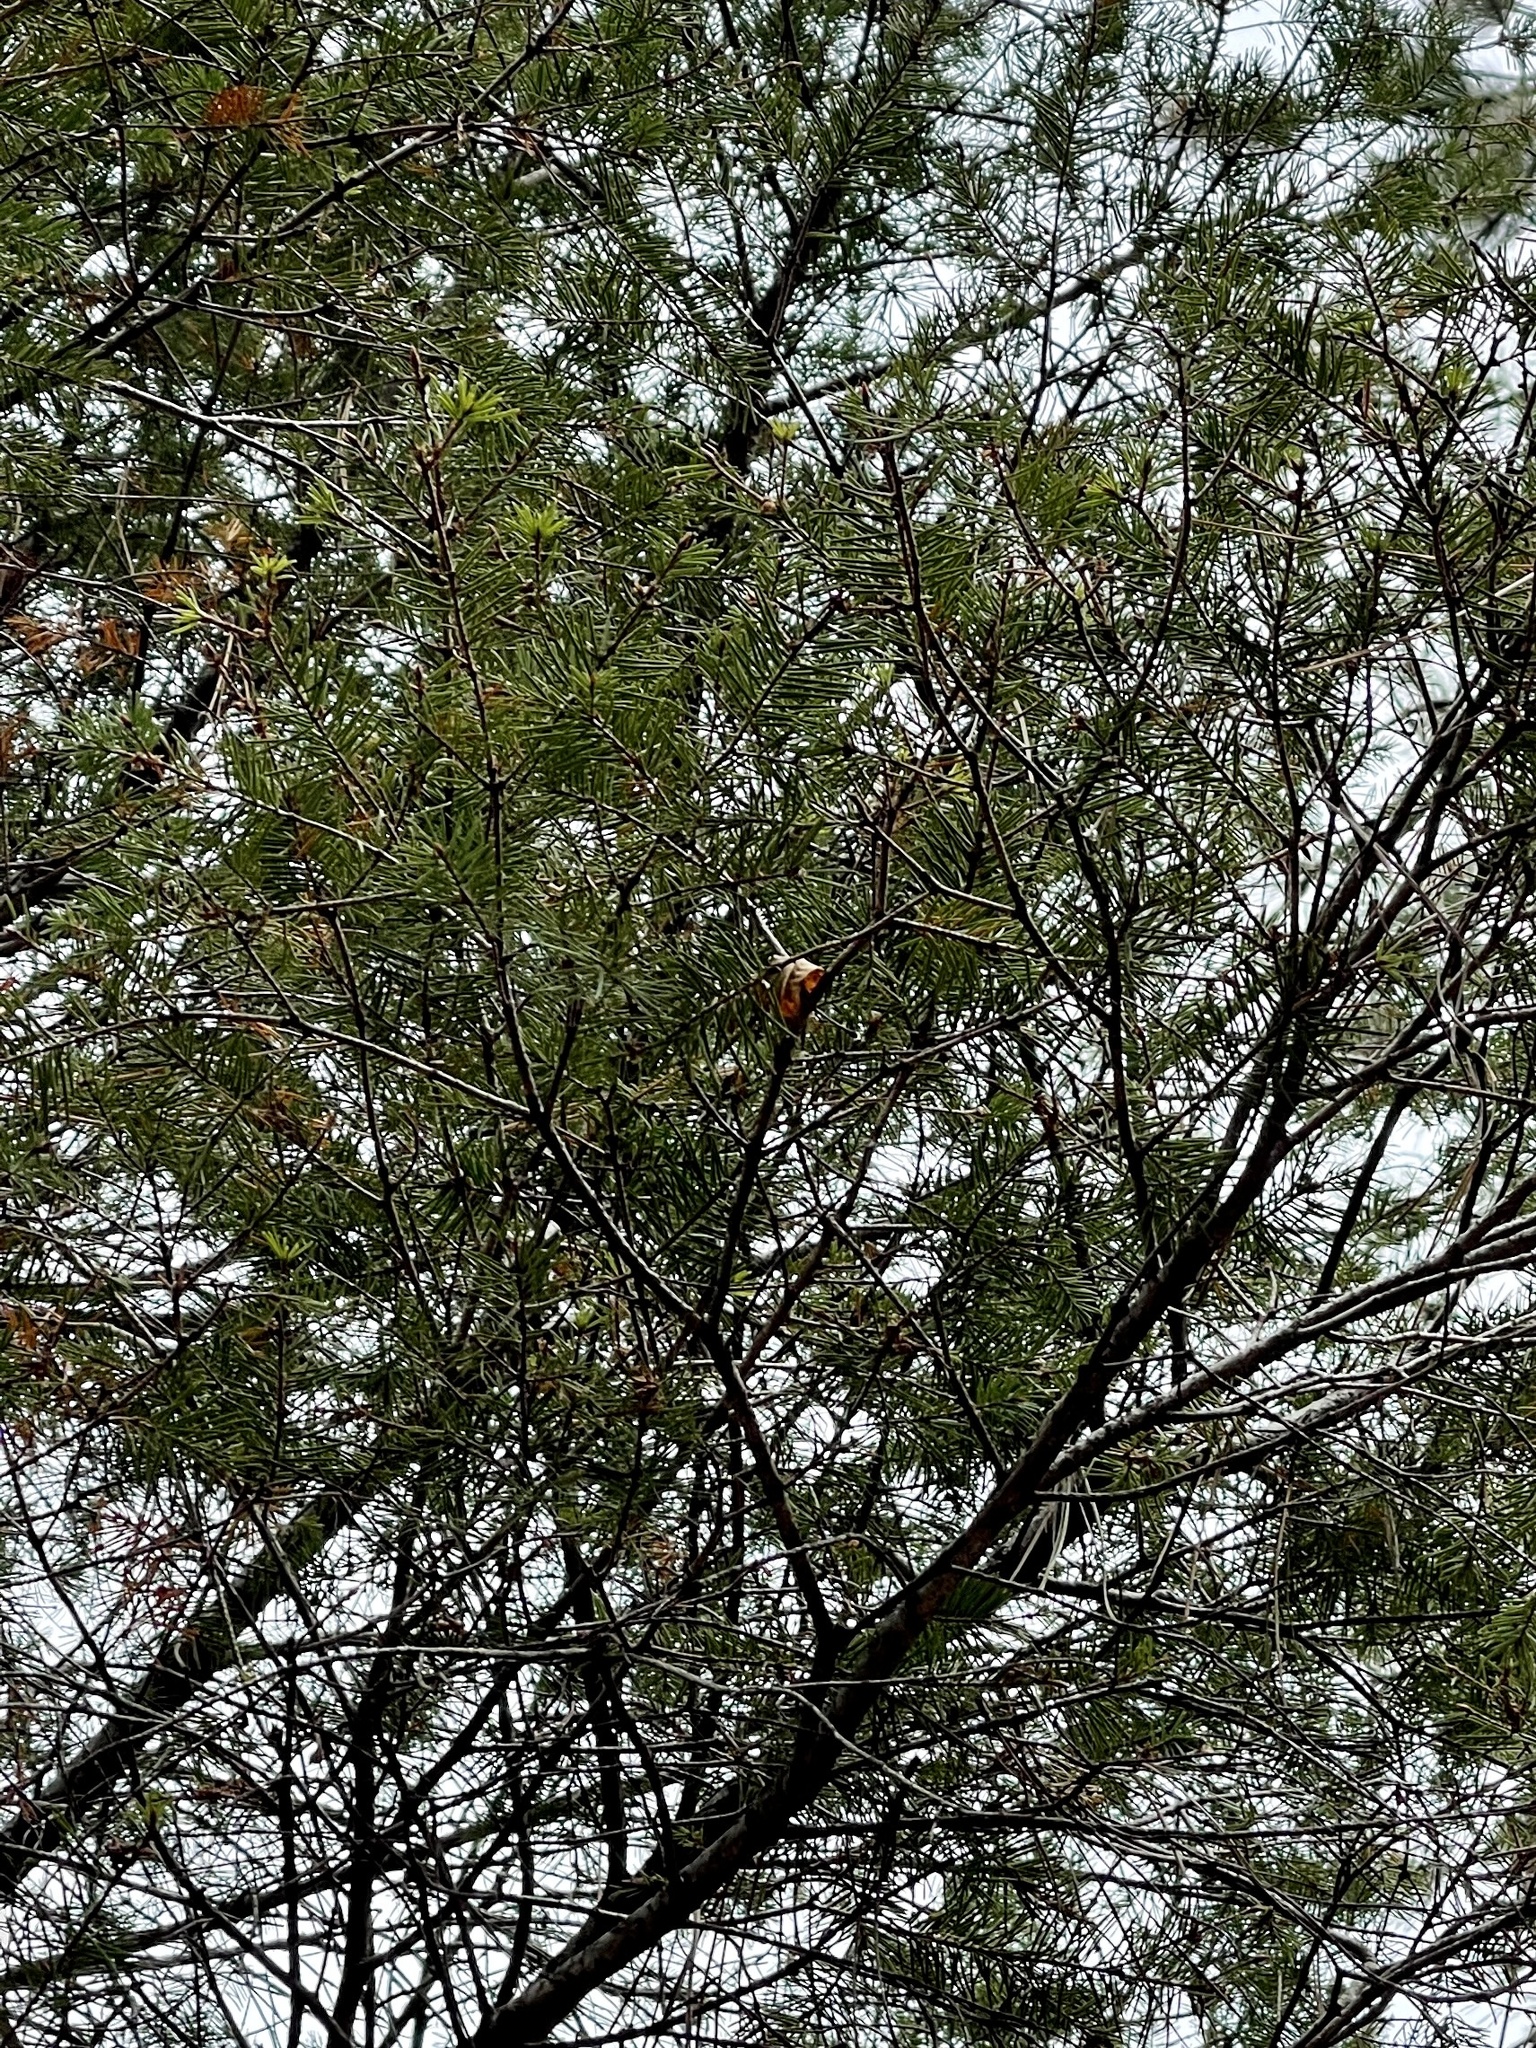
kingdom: Plantae
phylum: Tracheophyta
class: Pinopsida
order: Pinales
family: Pinaceae
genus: Pseudotsuga
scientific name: Pseudotsuga menziesii
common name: Douglas fir
